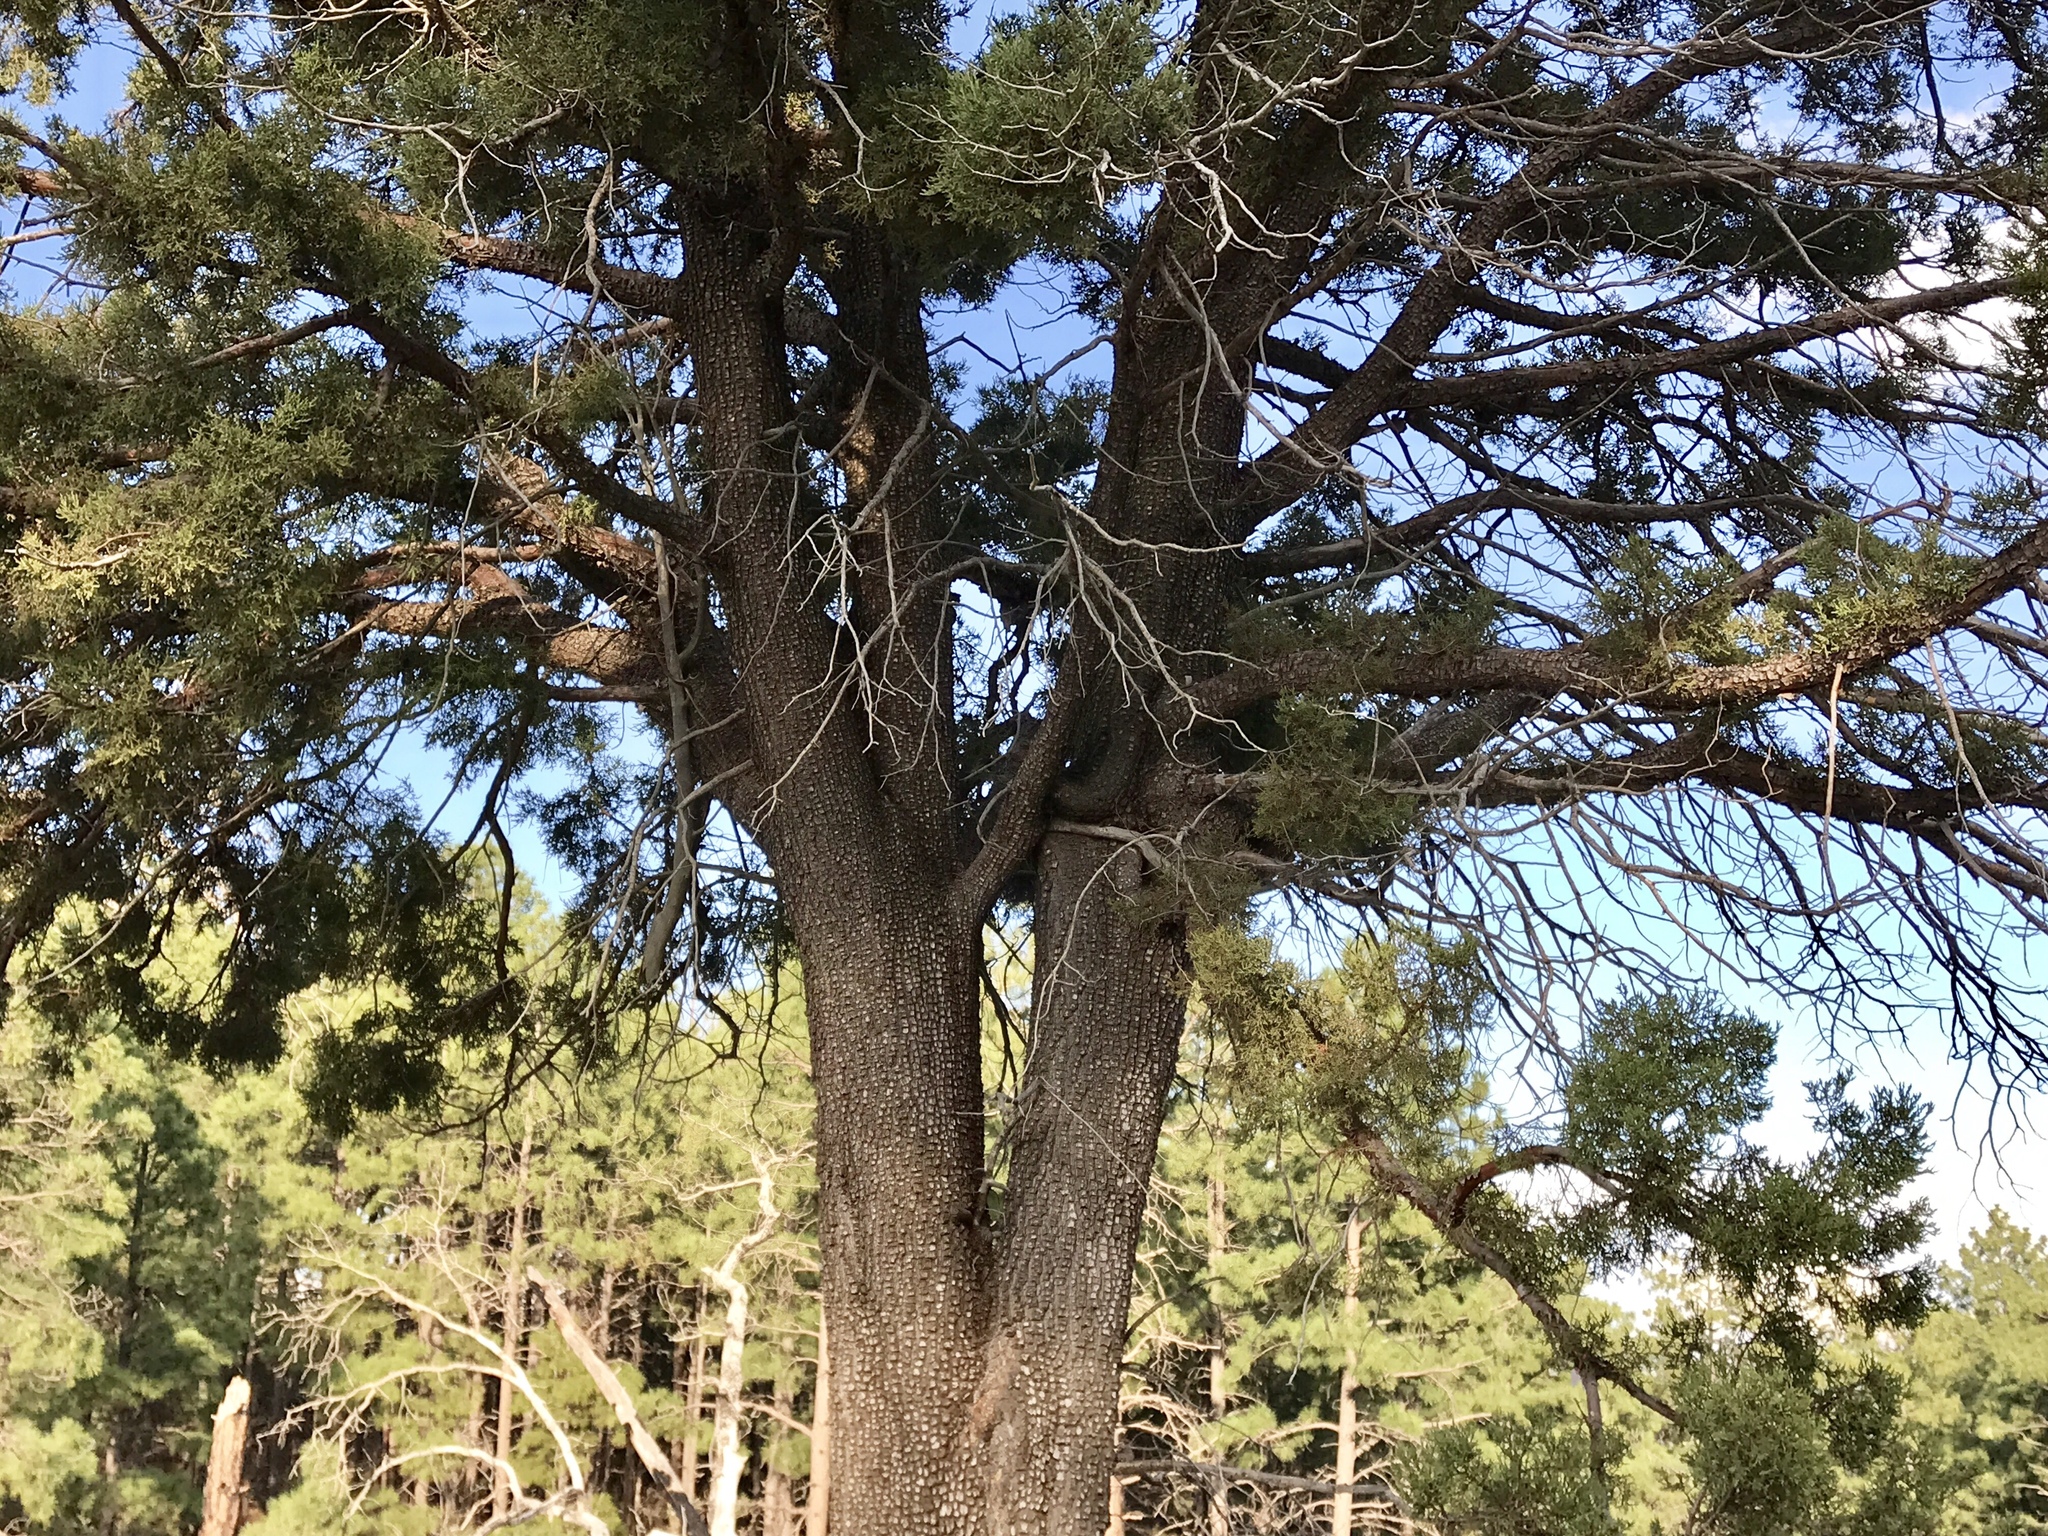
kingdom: Plantae
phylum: Tracheophyta
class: Pinopsida
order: Pinales
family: Cupressaceae
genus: Juniperus
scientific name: Juniperus deppeana
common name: Alligator juniper
